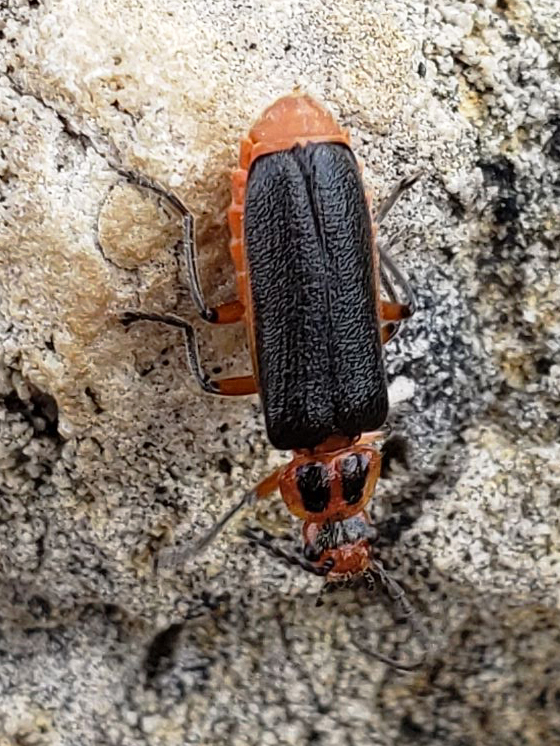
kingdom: Animalia
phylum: Arthropoda
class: Insecta
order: Coleoptera
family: Cantharidae
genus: Atalantycha
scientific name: Atalantycha bilineata
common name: Two-lined leatherwing
